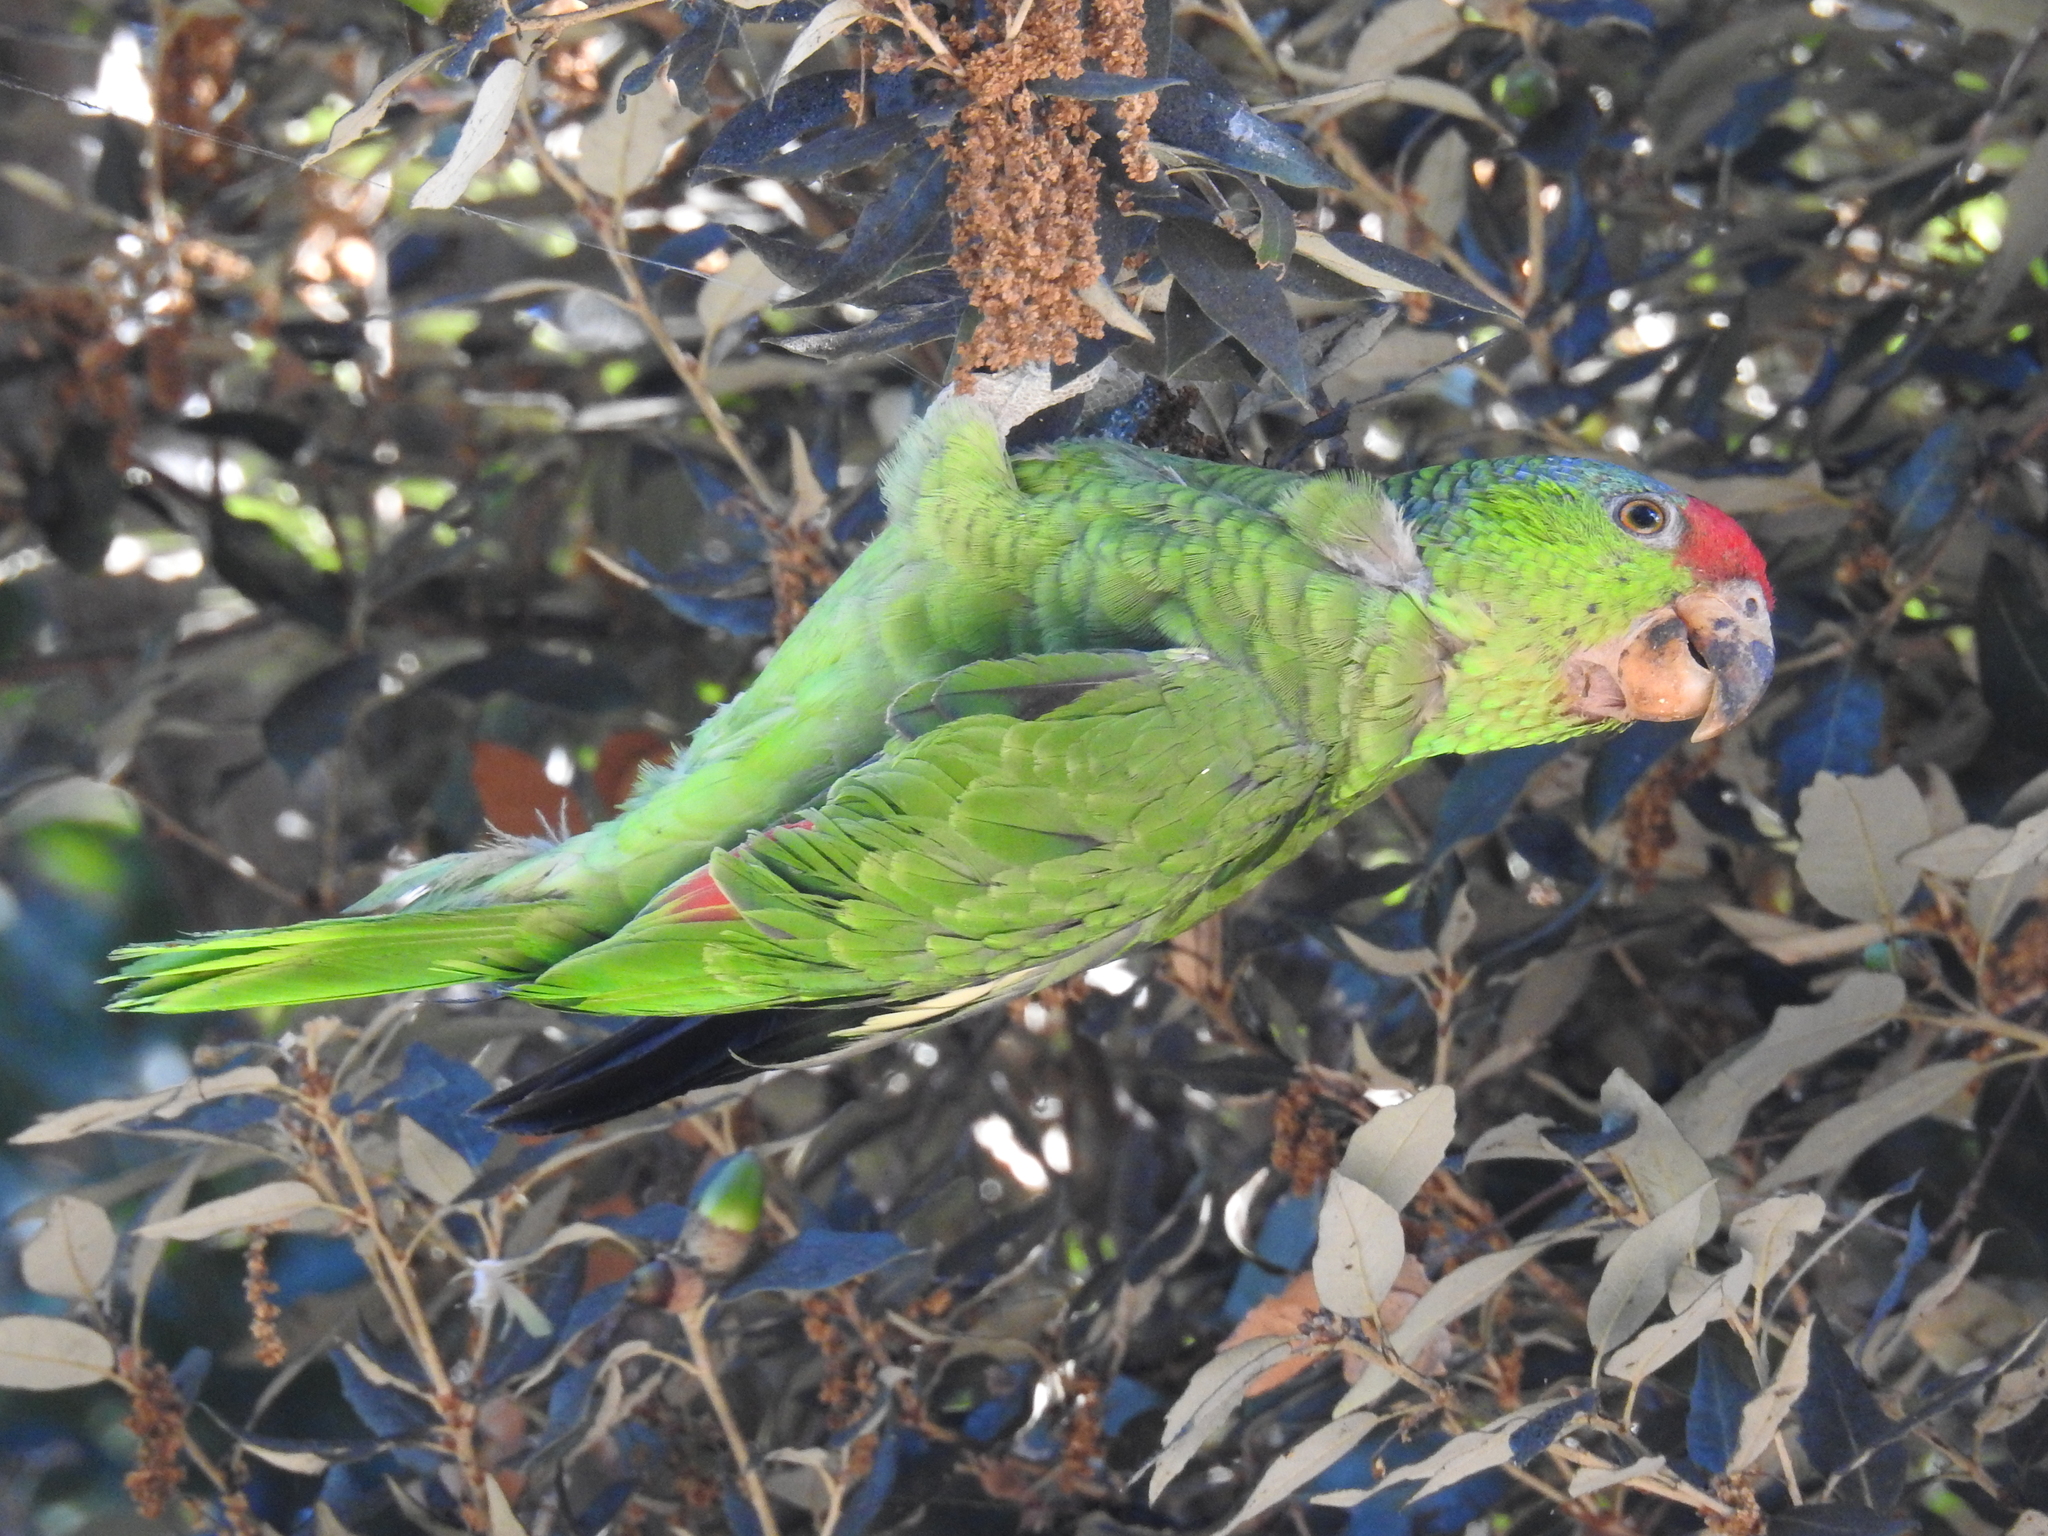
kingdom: Animalia
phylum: Chordata
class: Aves
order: Psittaciformes
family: Psittacidae
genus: Amazona
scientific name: Amazona viridigenalis
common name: Red-crowned amazon
